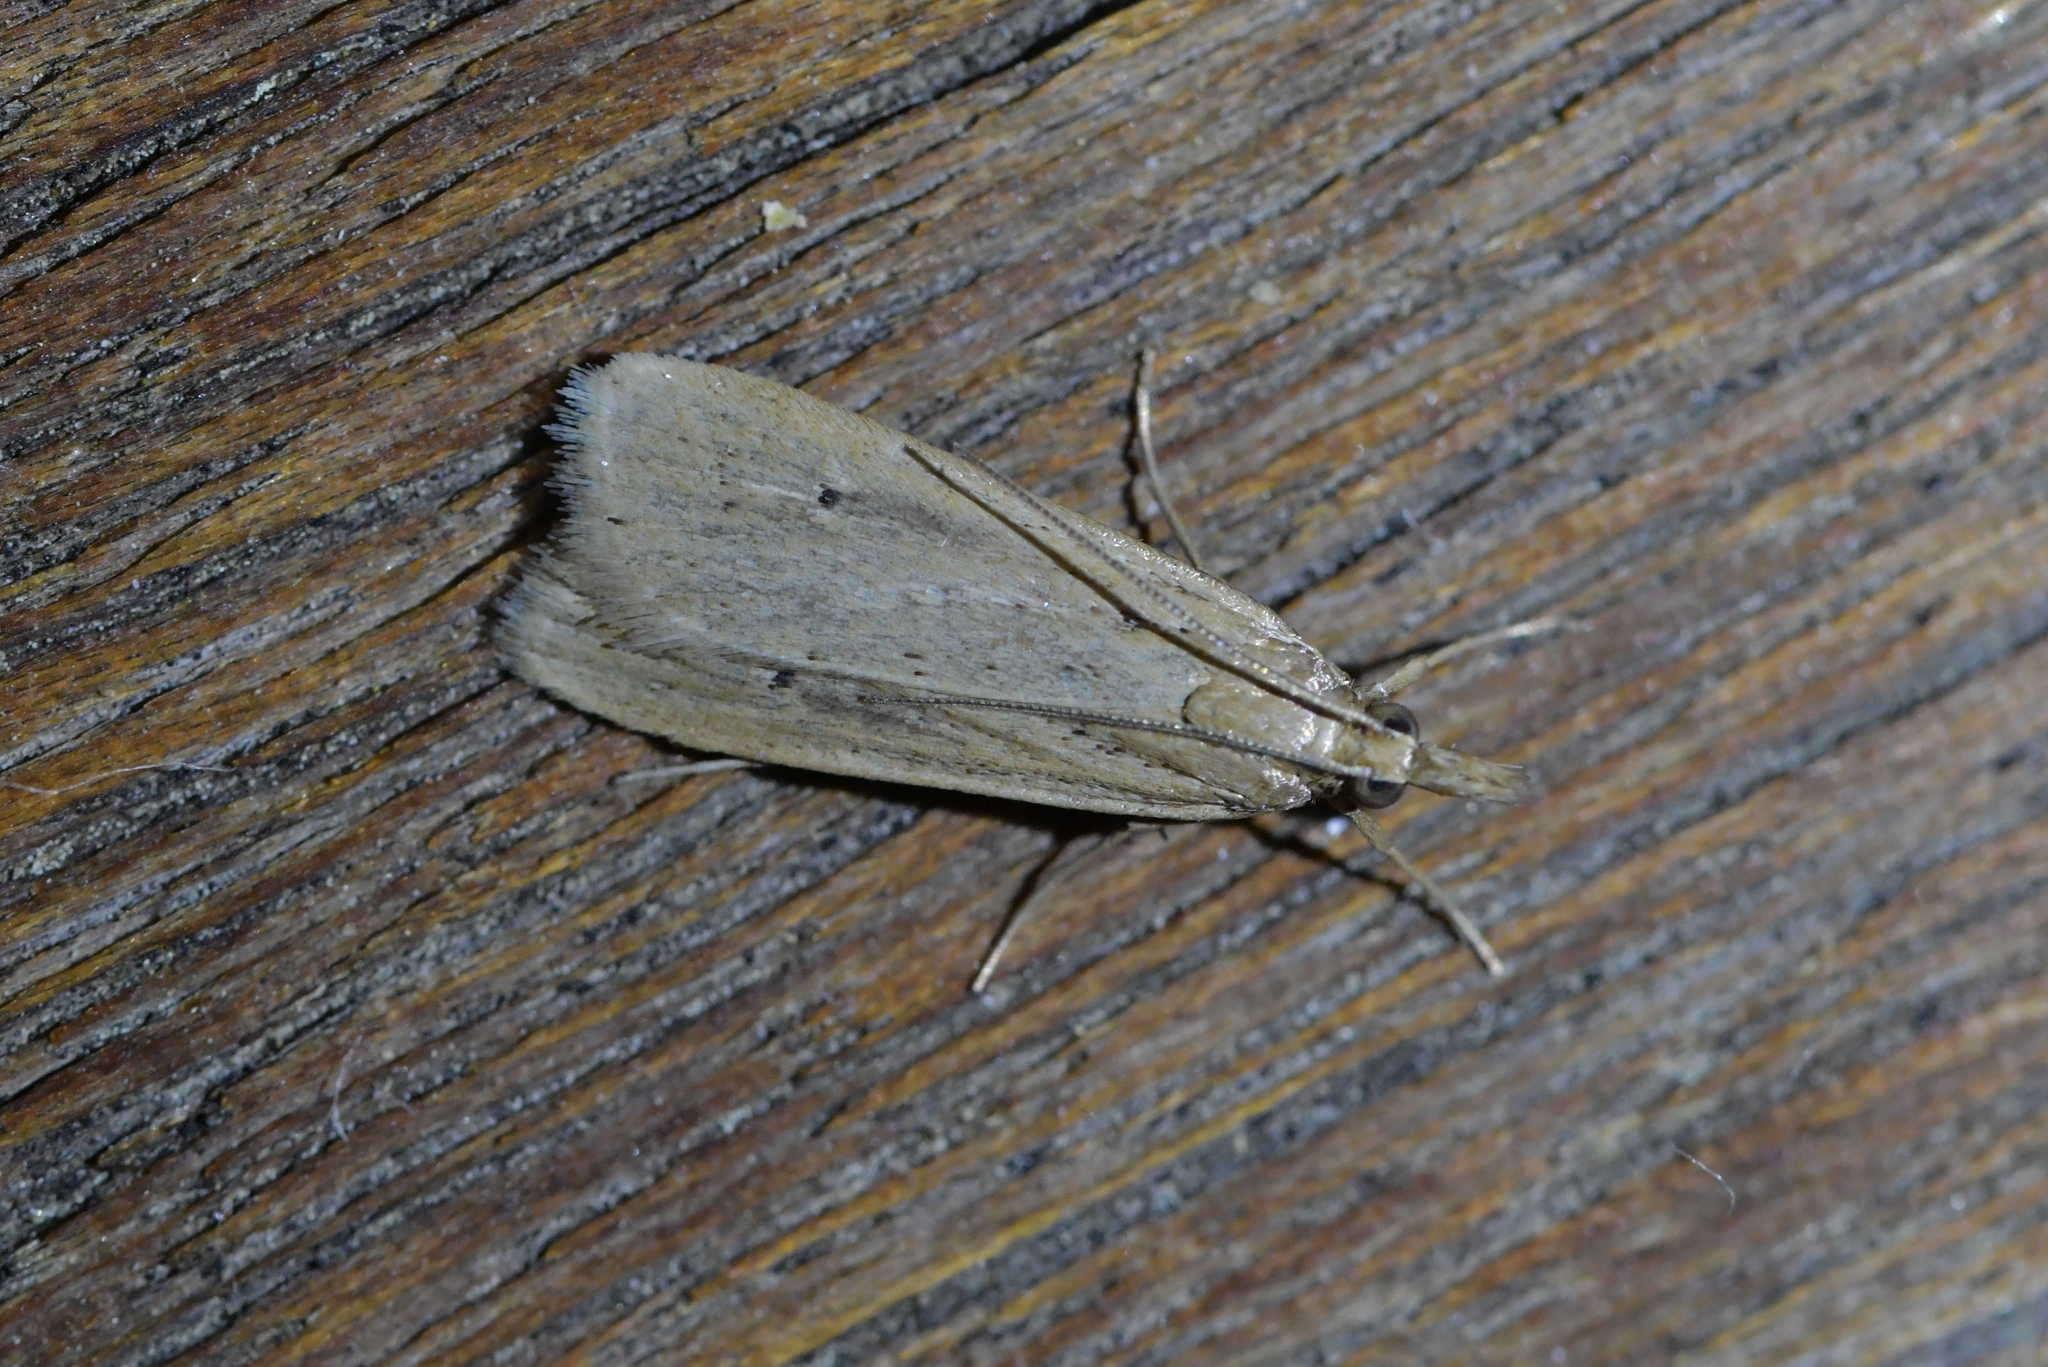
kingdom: Animalia
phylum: Arthropoda
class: Insecta
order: Lepidoptera
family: Crambidae
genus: Eudonia
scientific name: Eudonia sabulosella
